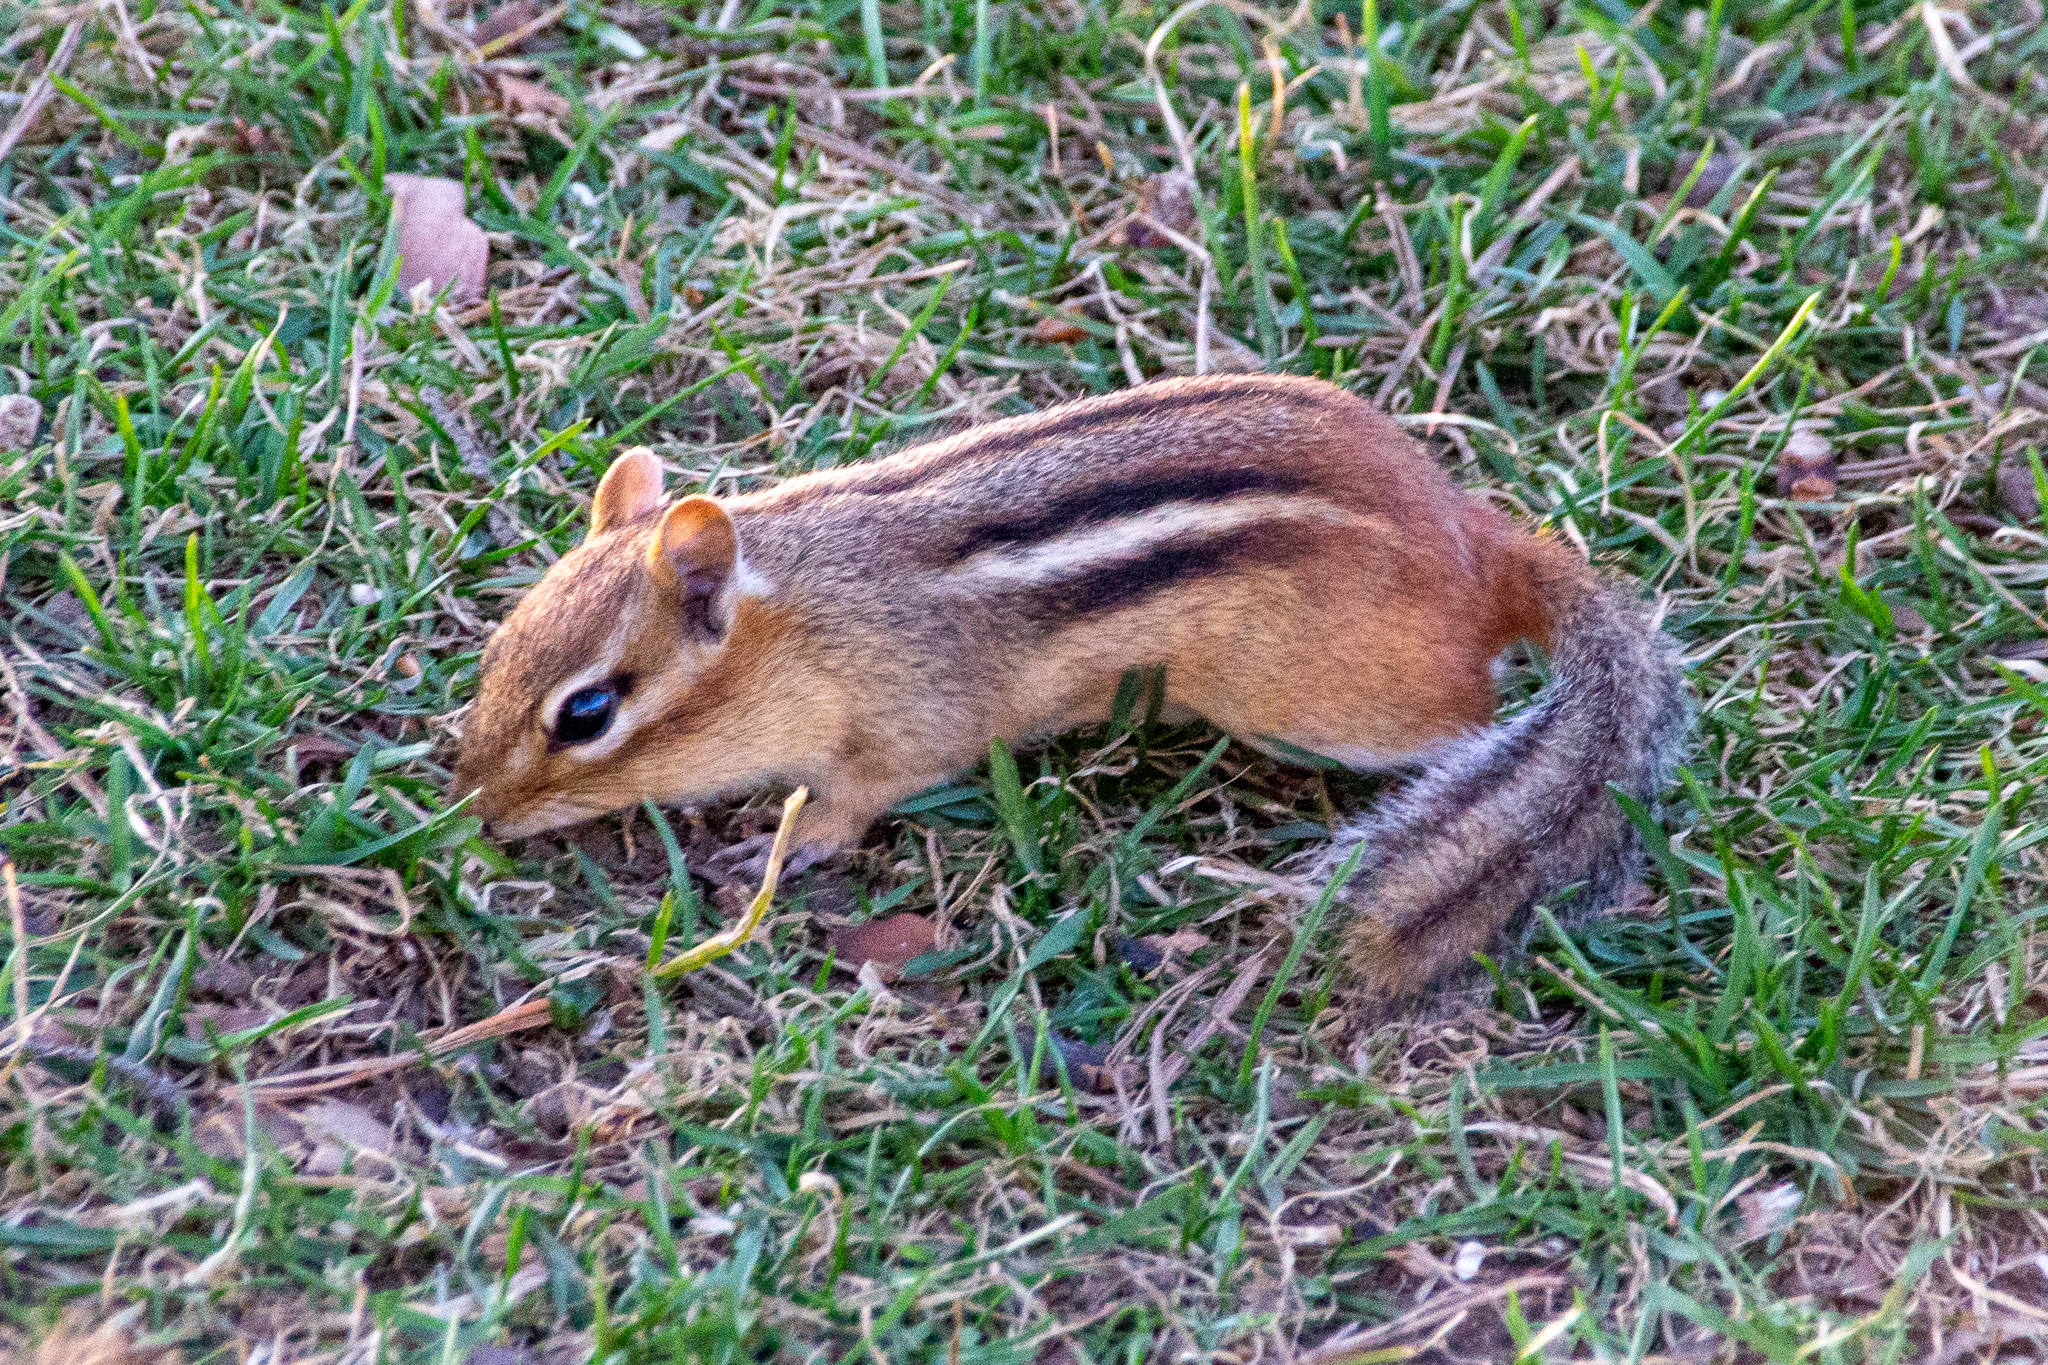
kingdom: Animalia
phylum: Chordata
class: Mammalia
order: Rodentia
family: Sciuridae
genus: Tamias
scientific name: Tamias striatus
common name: Eastern chipmunk
